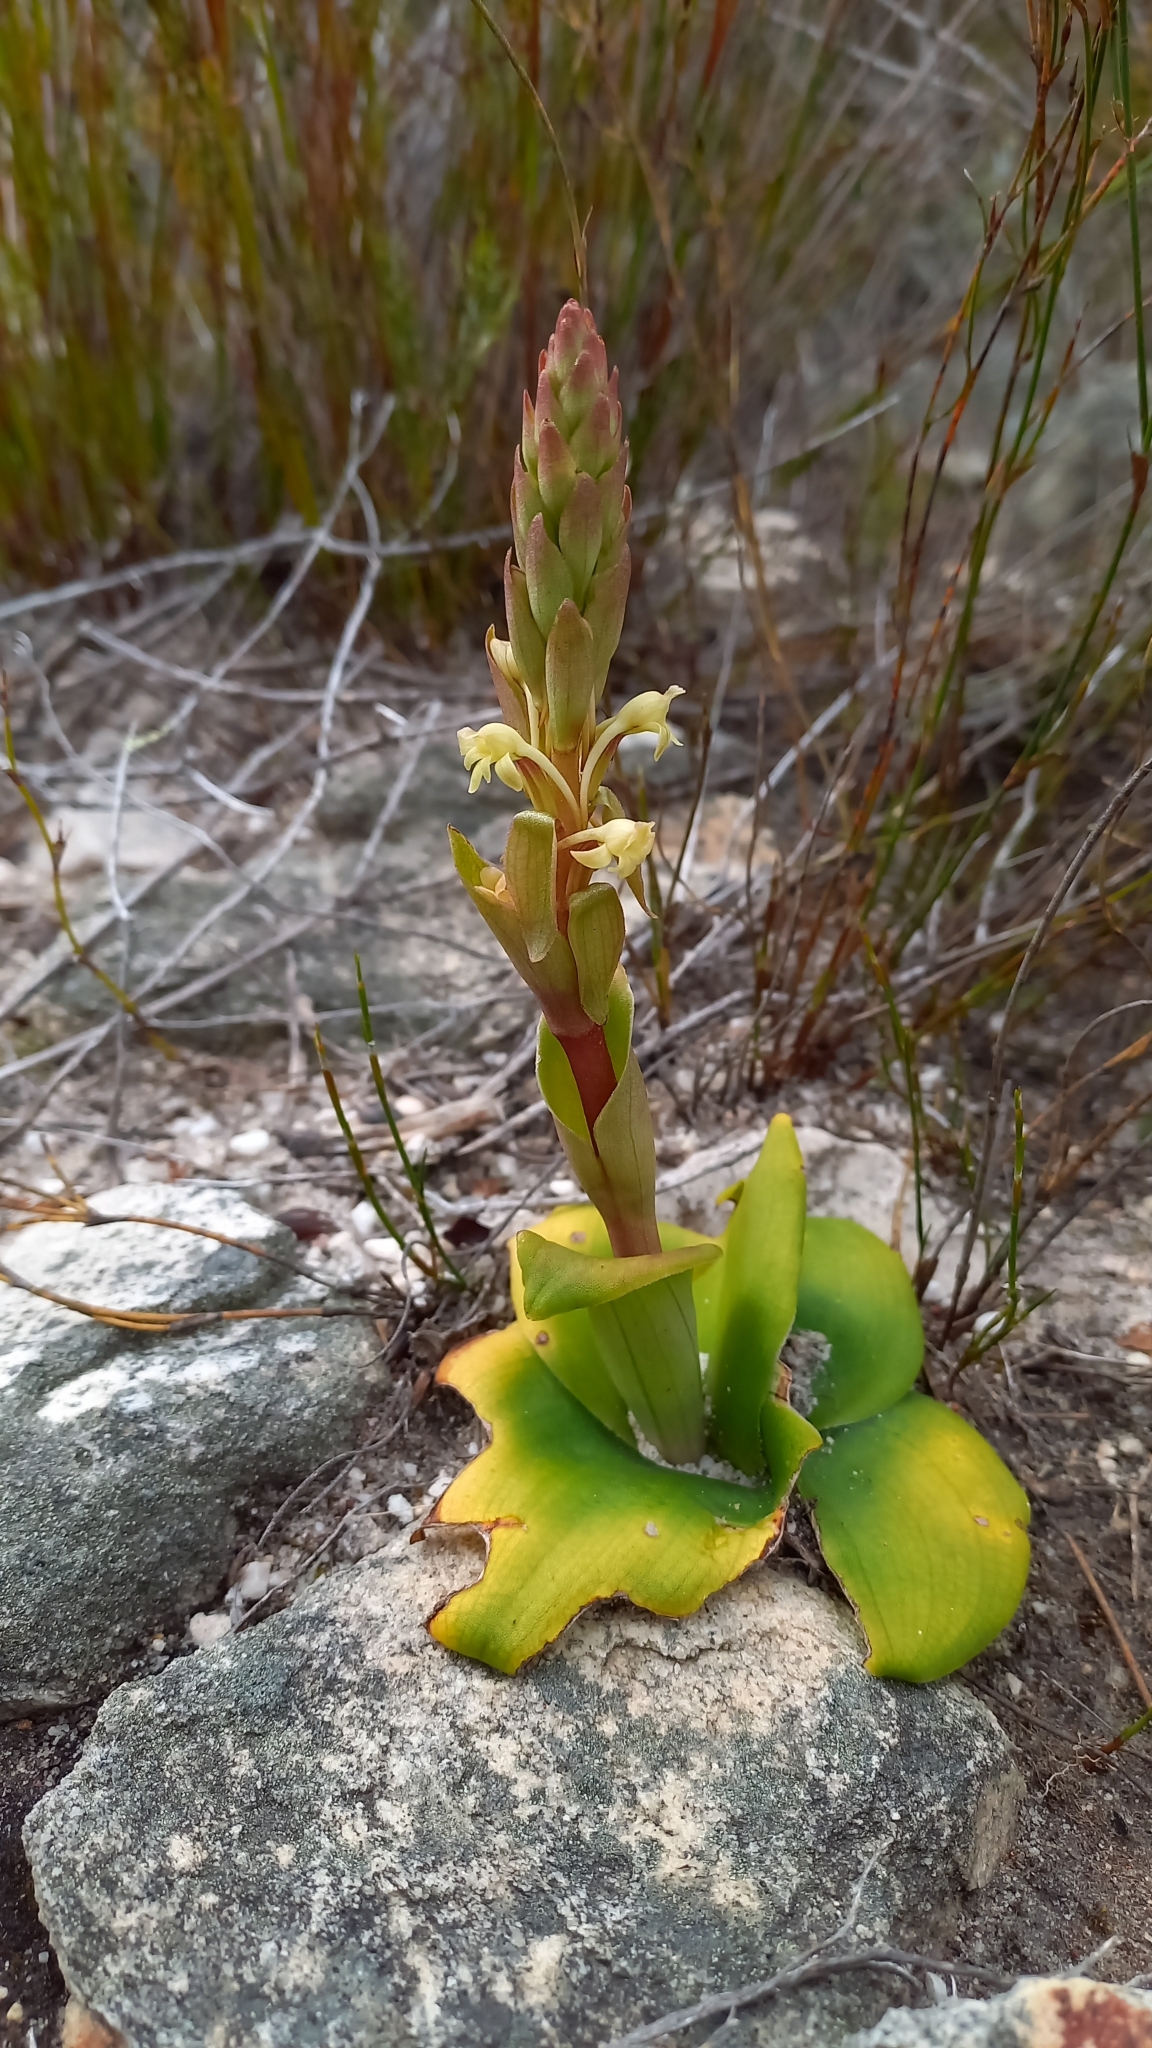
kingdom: Plantae
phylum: Tracheophyta
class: Liliopsida
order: Asparagales
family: Orchidaceae
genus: Satyrium
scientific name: Satyrium humile
